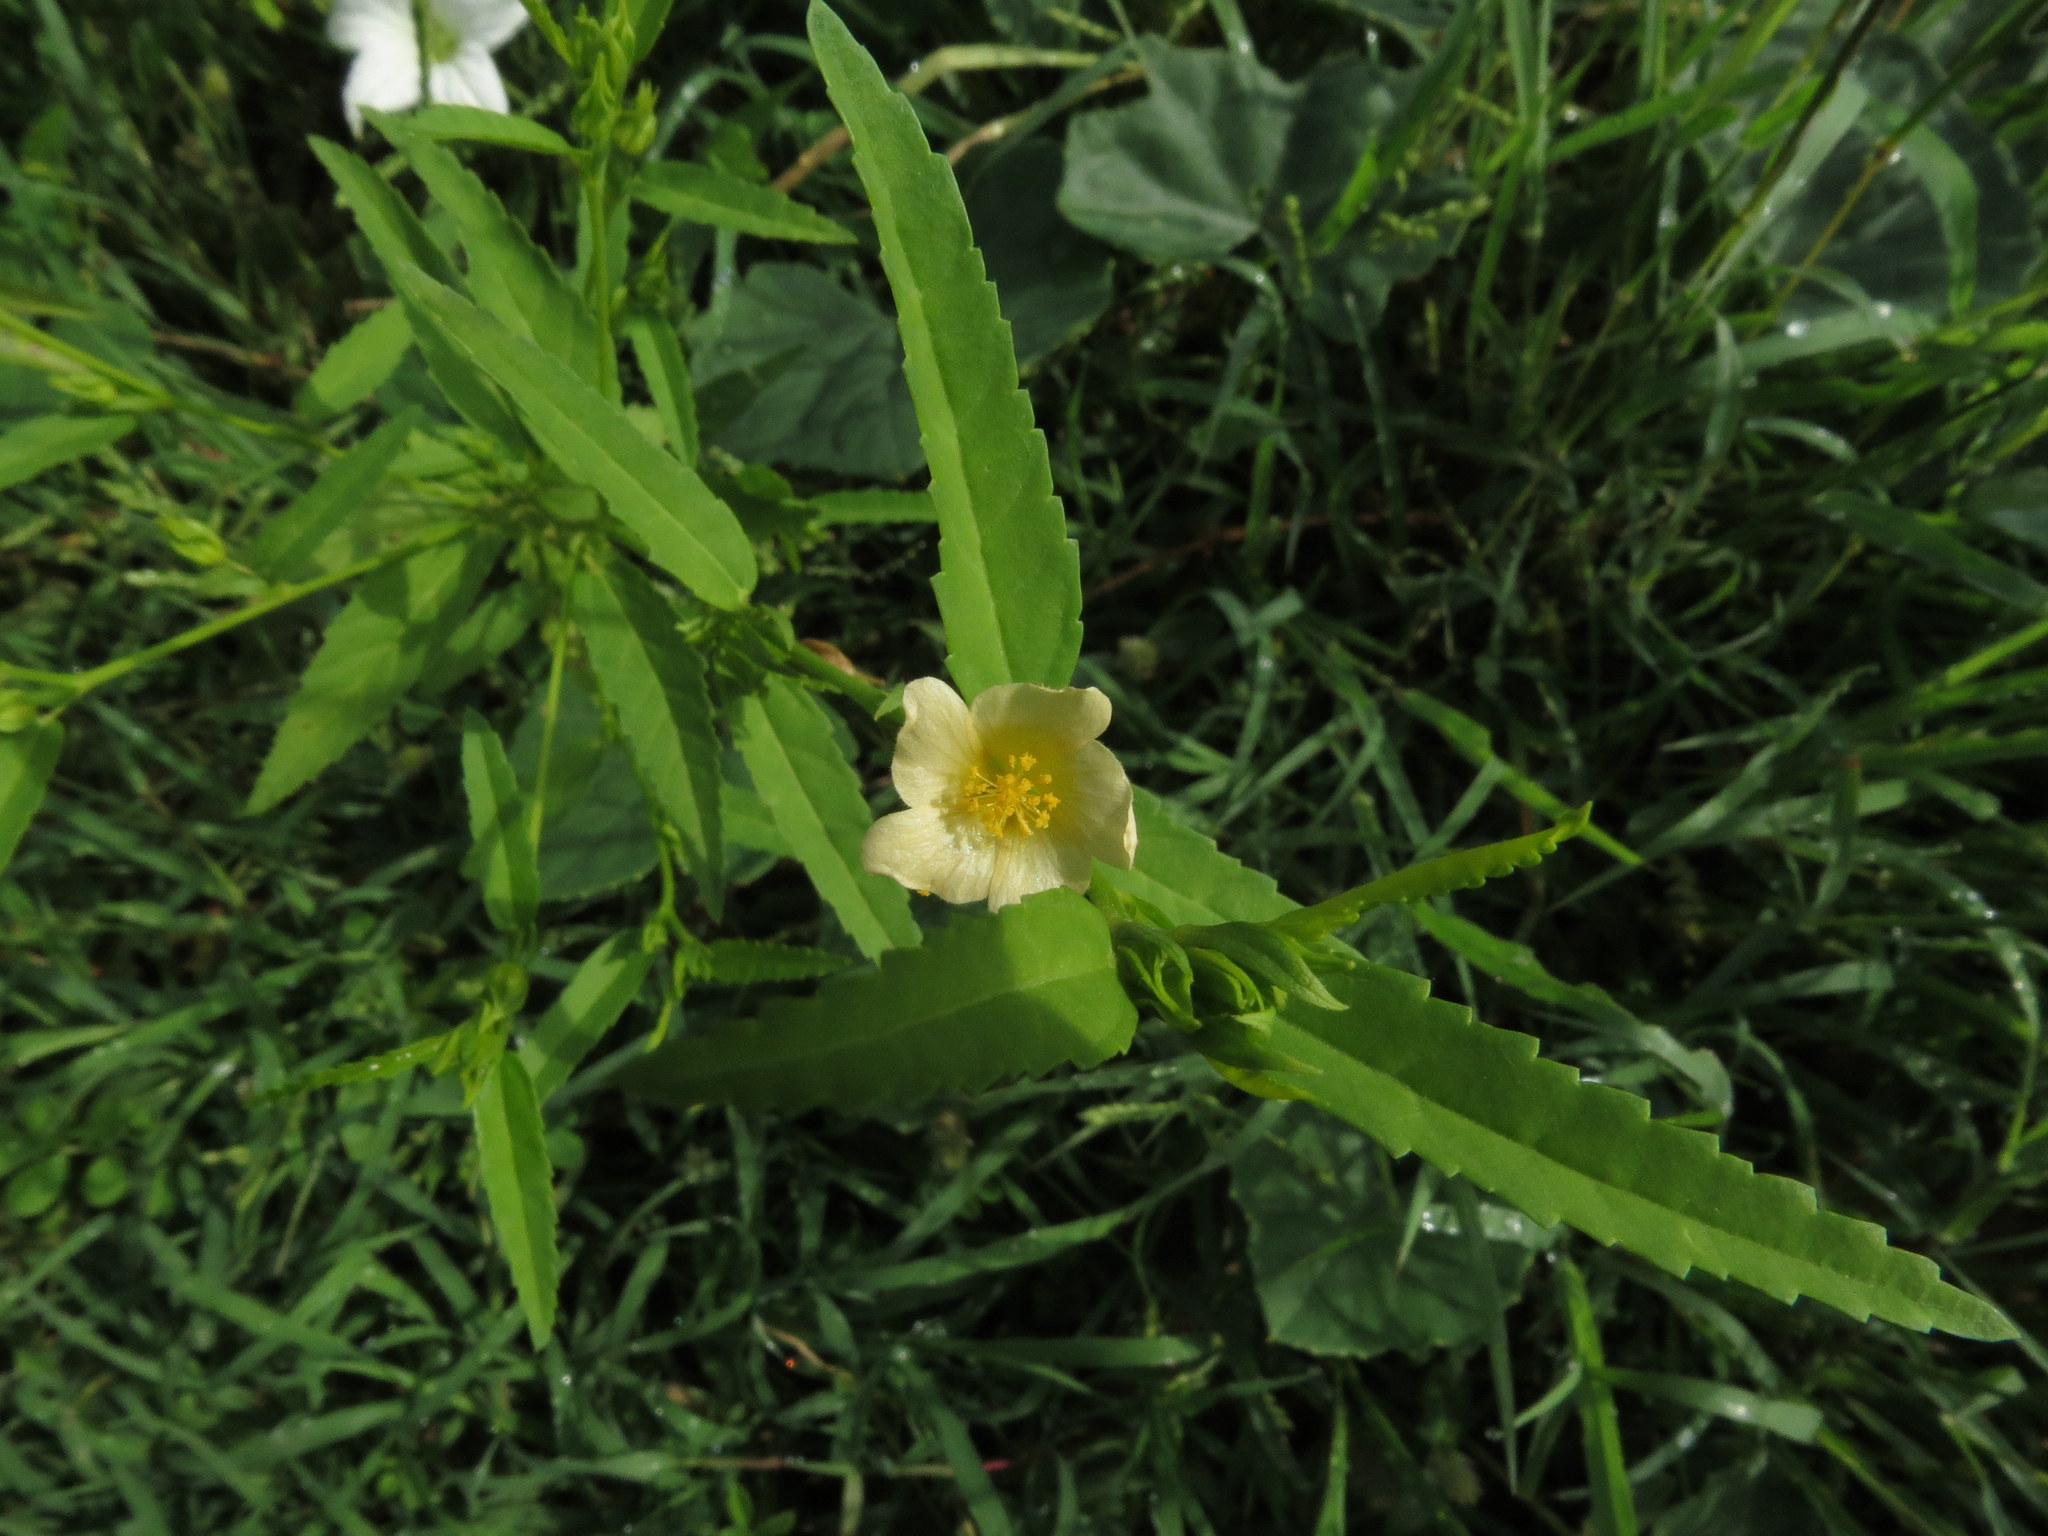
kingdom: Plantae
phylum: Tracheophyta
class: Magnoliopsida
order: Malvales
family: Malvaceae
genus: Sida
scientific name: Sida acuta
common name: Common wireweed
